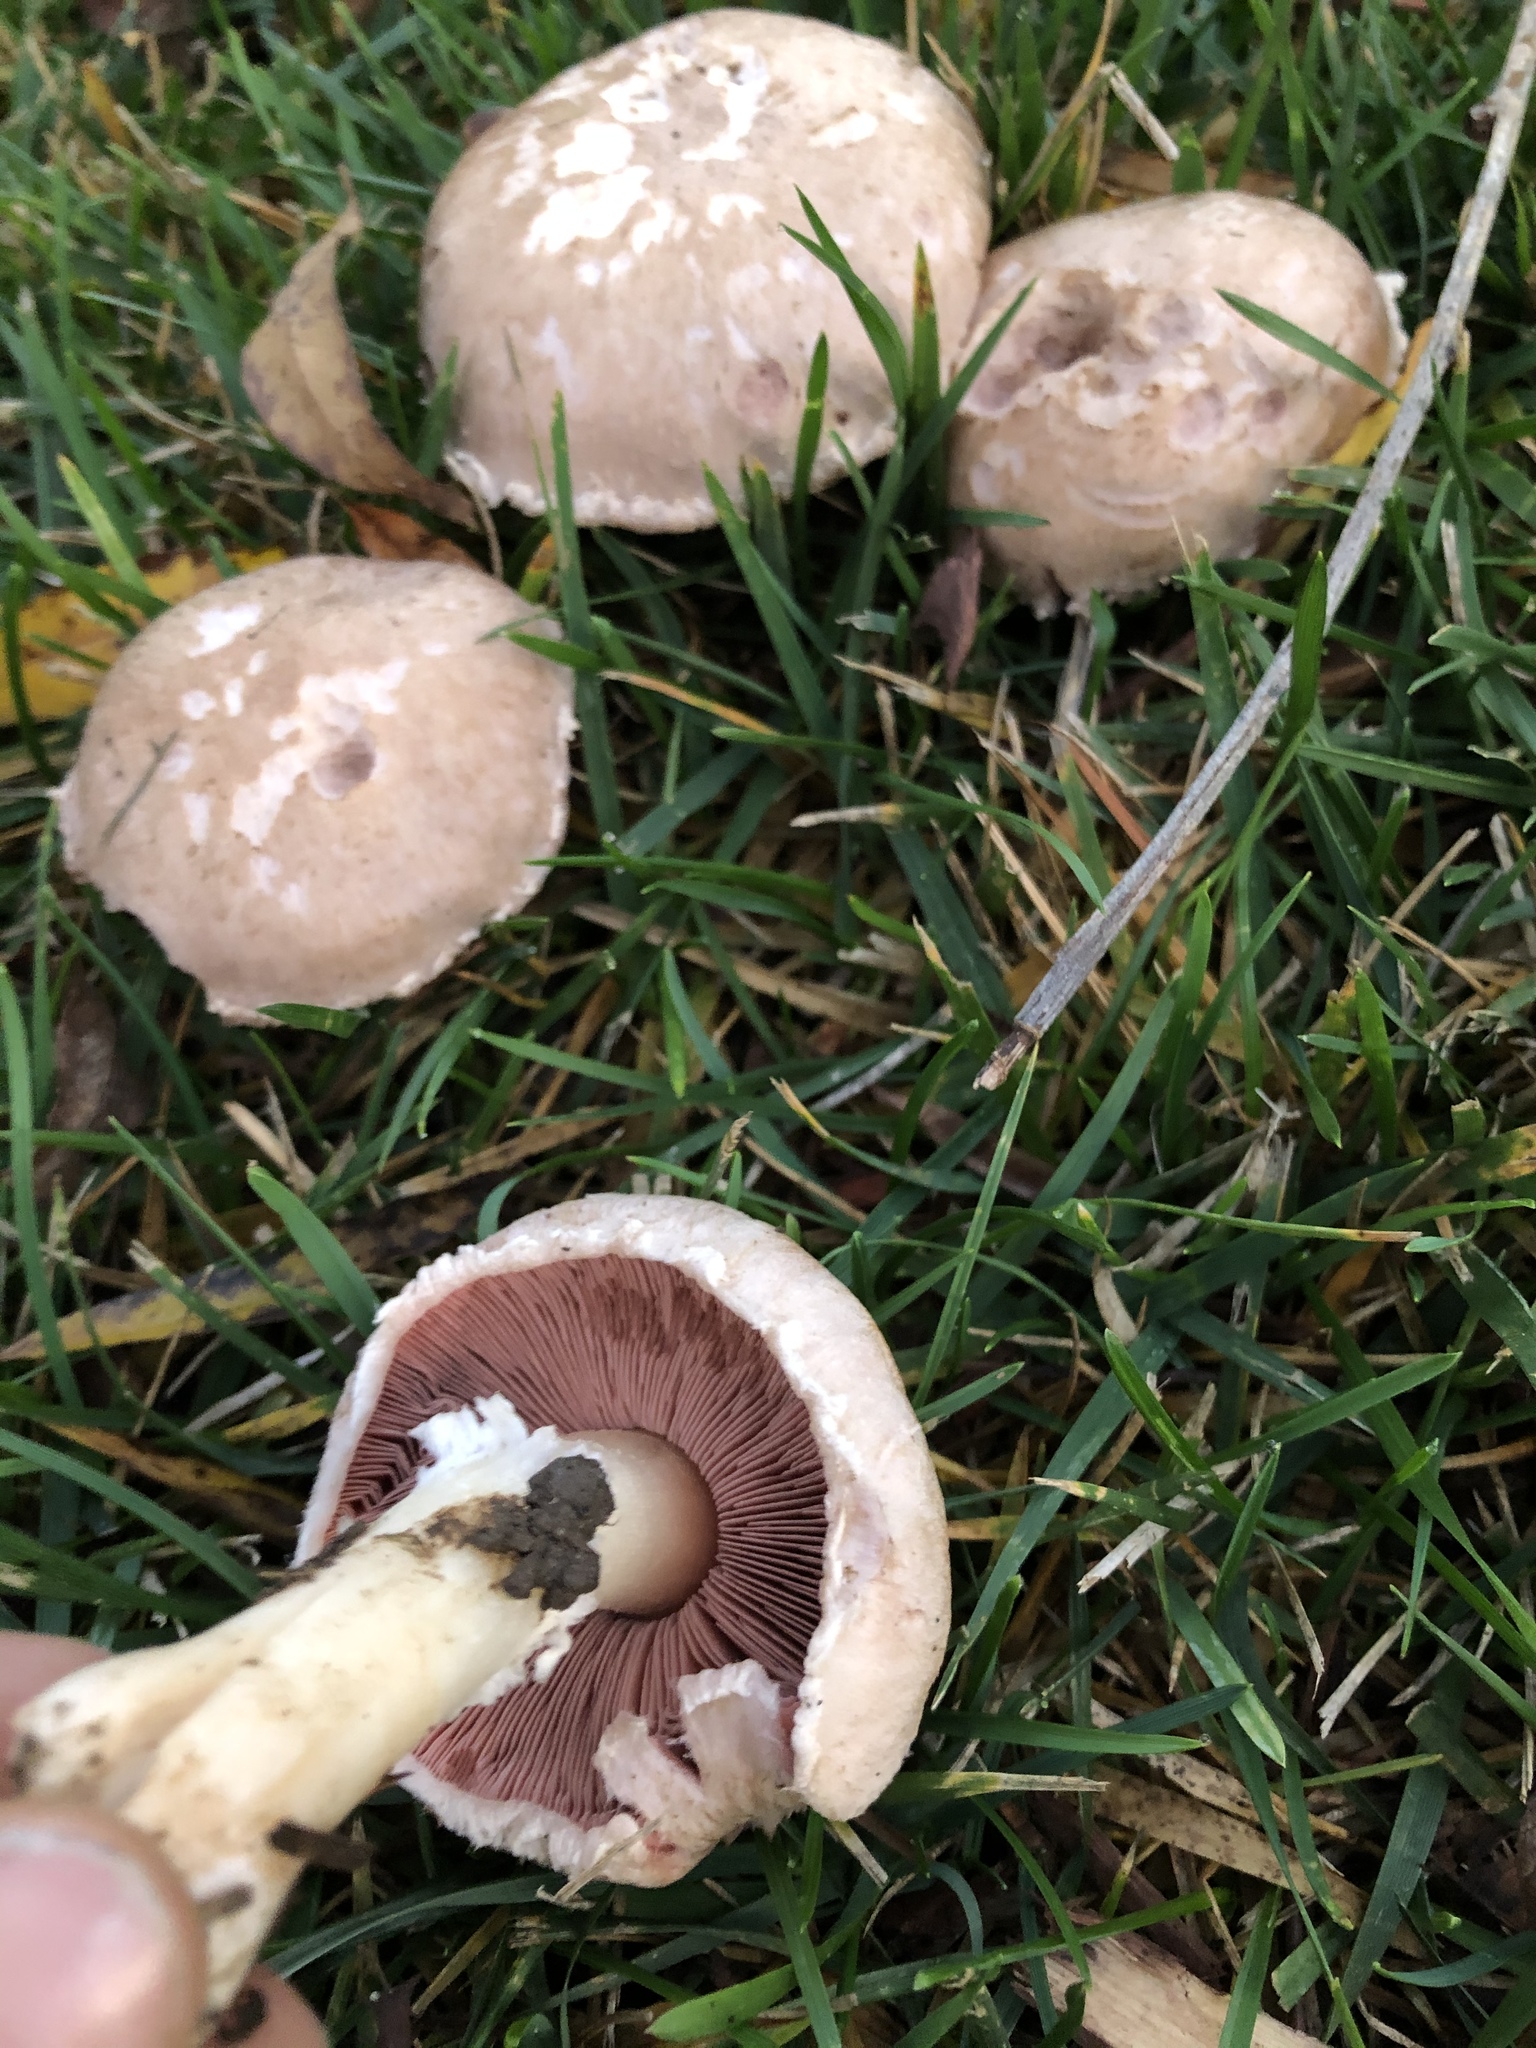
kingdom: Fungi
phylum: Basidiomycota
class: Agaricomycetes
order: Agaricales
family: Agaricaceae
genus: Agaricus
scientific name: Agaricus californicus
